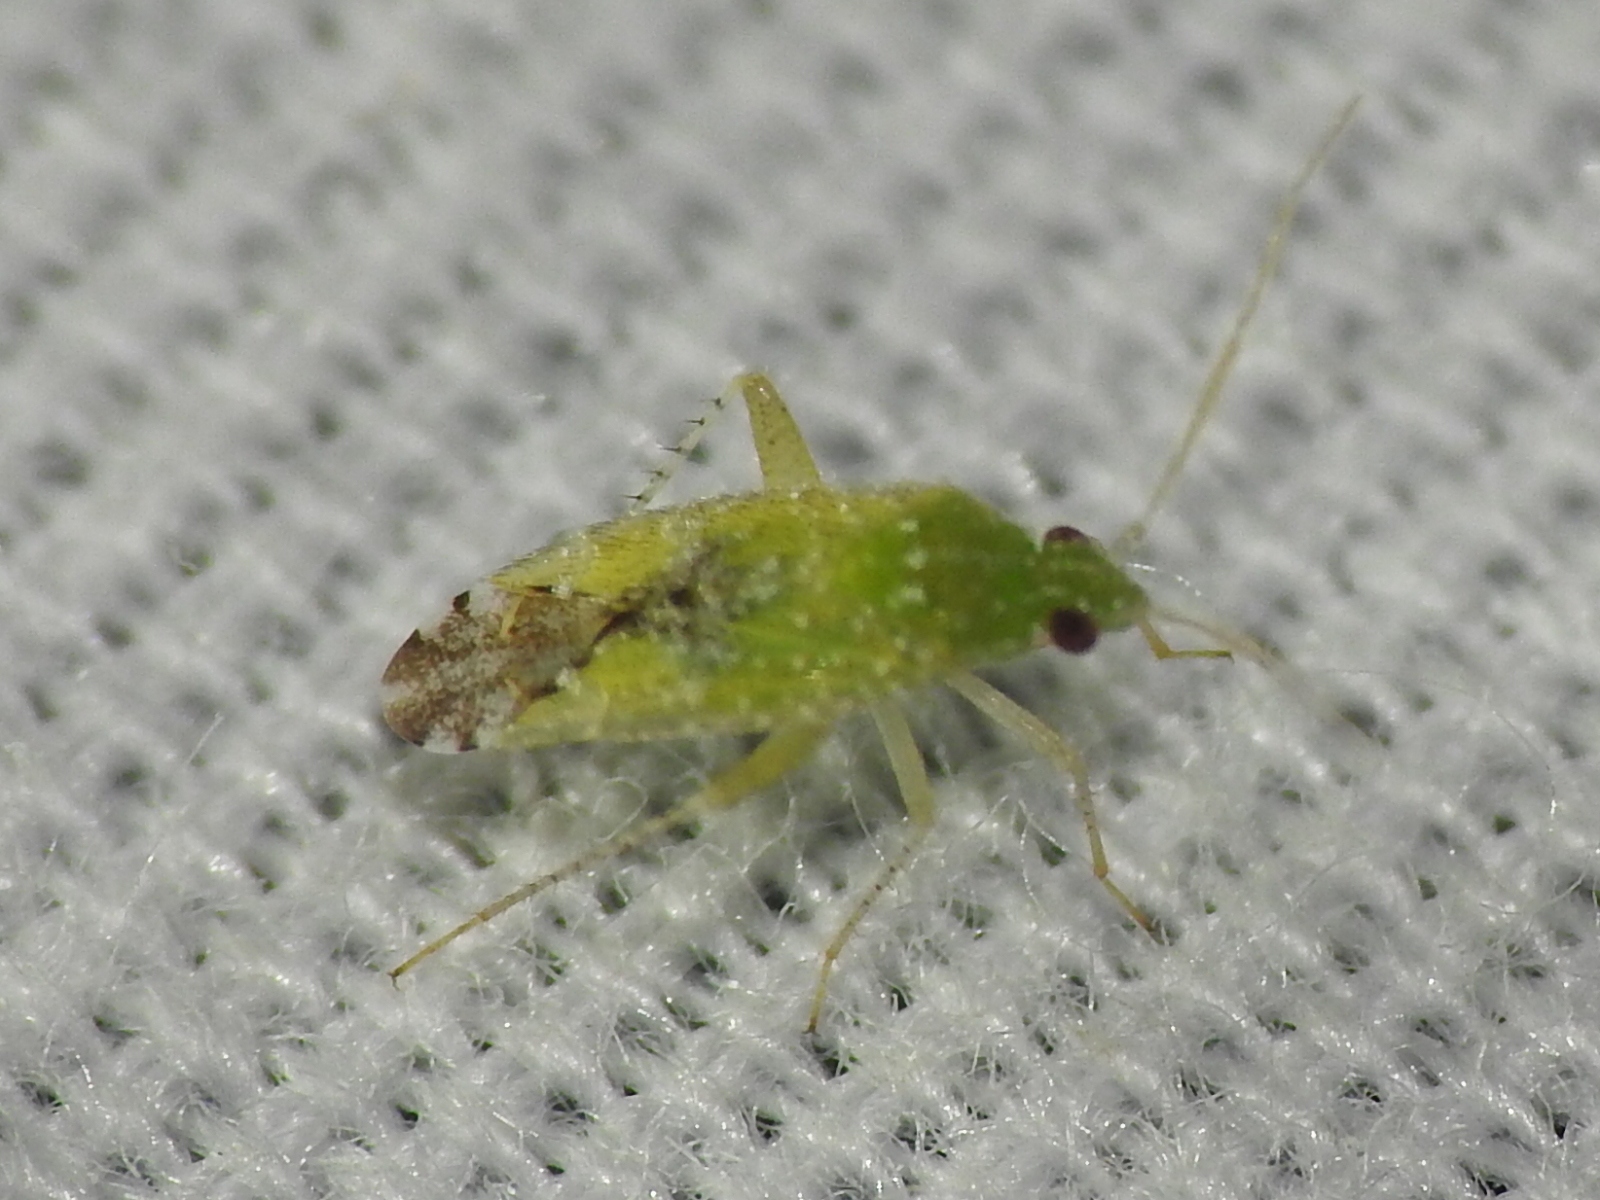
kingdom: Animalia
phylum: Arthropoda
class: Insecta
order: Hemiptera
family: Miridae
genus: Keltonia
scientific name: Keltonia tuckeri
